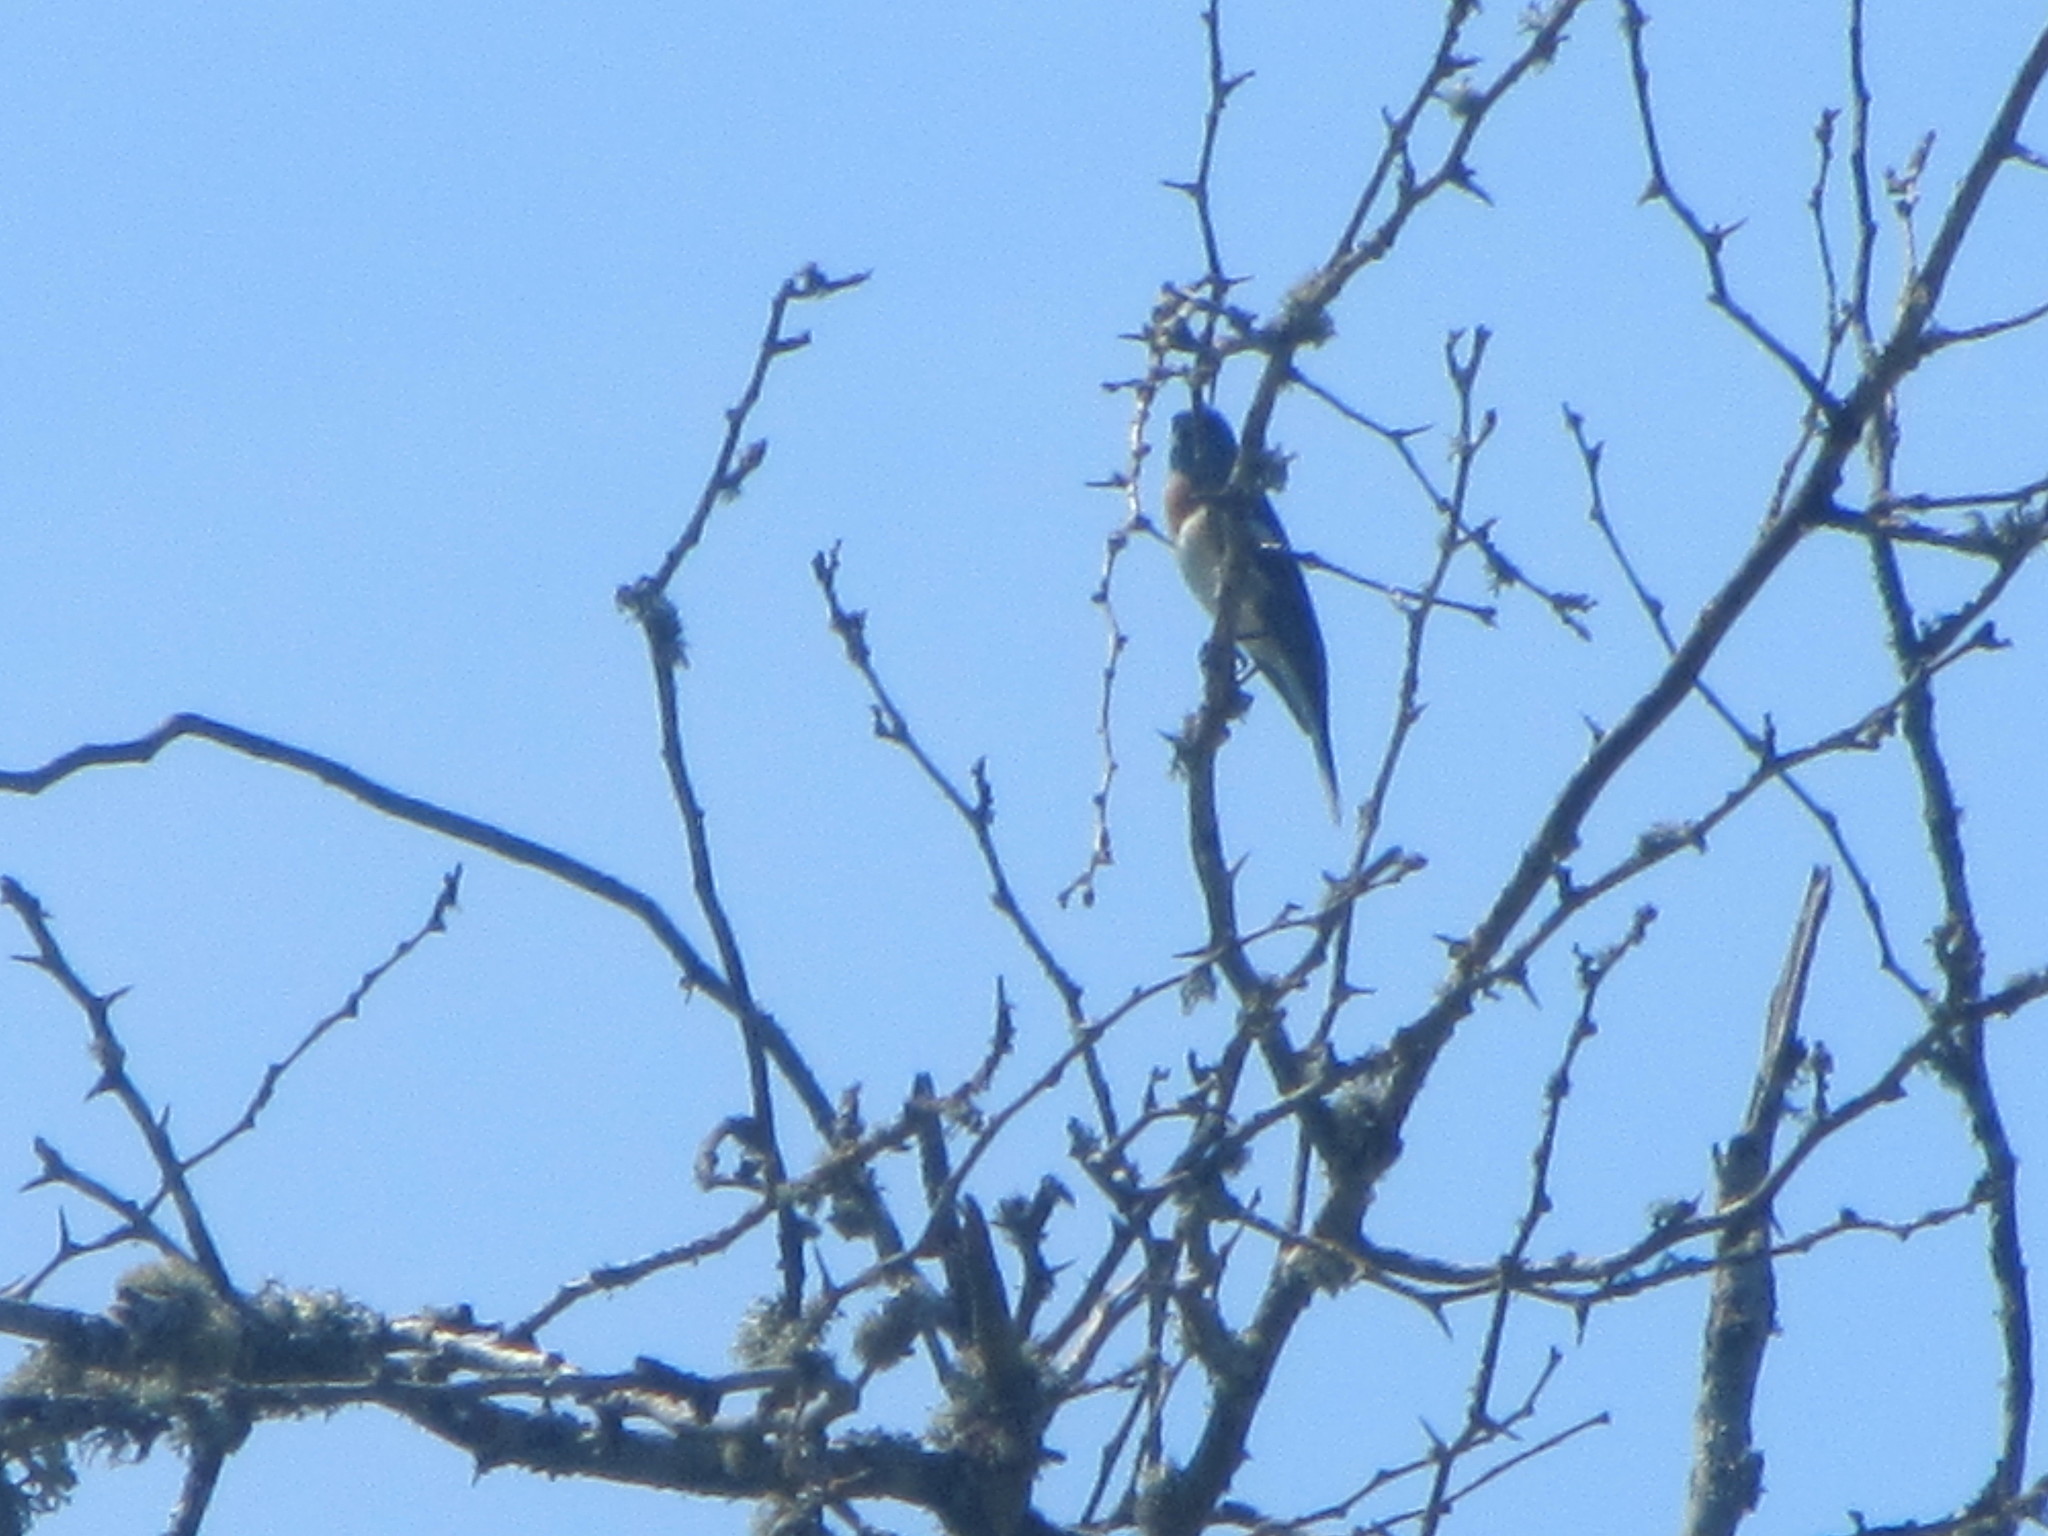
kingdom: Animalia
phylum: Chordata
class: Aves
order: Passeriformes
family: Cardinalidae
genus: Passerina
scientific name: Passerina amoena
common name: Lazuli bunting
